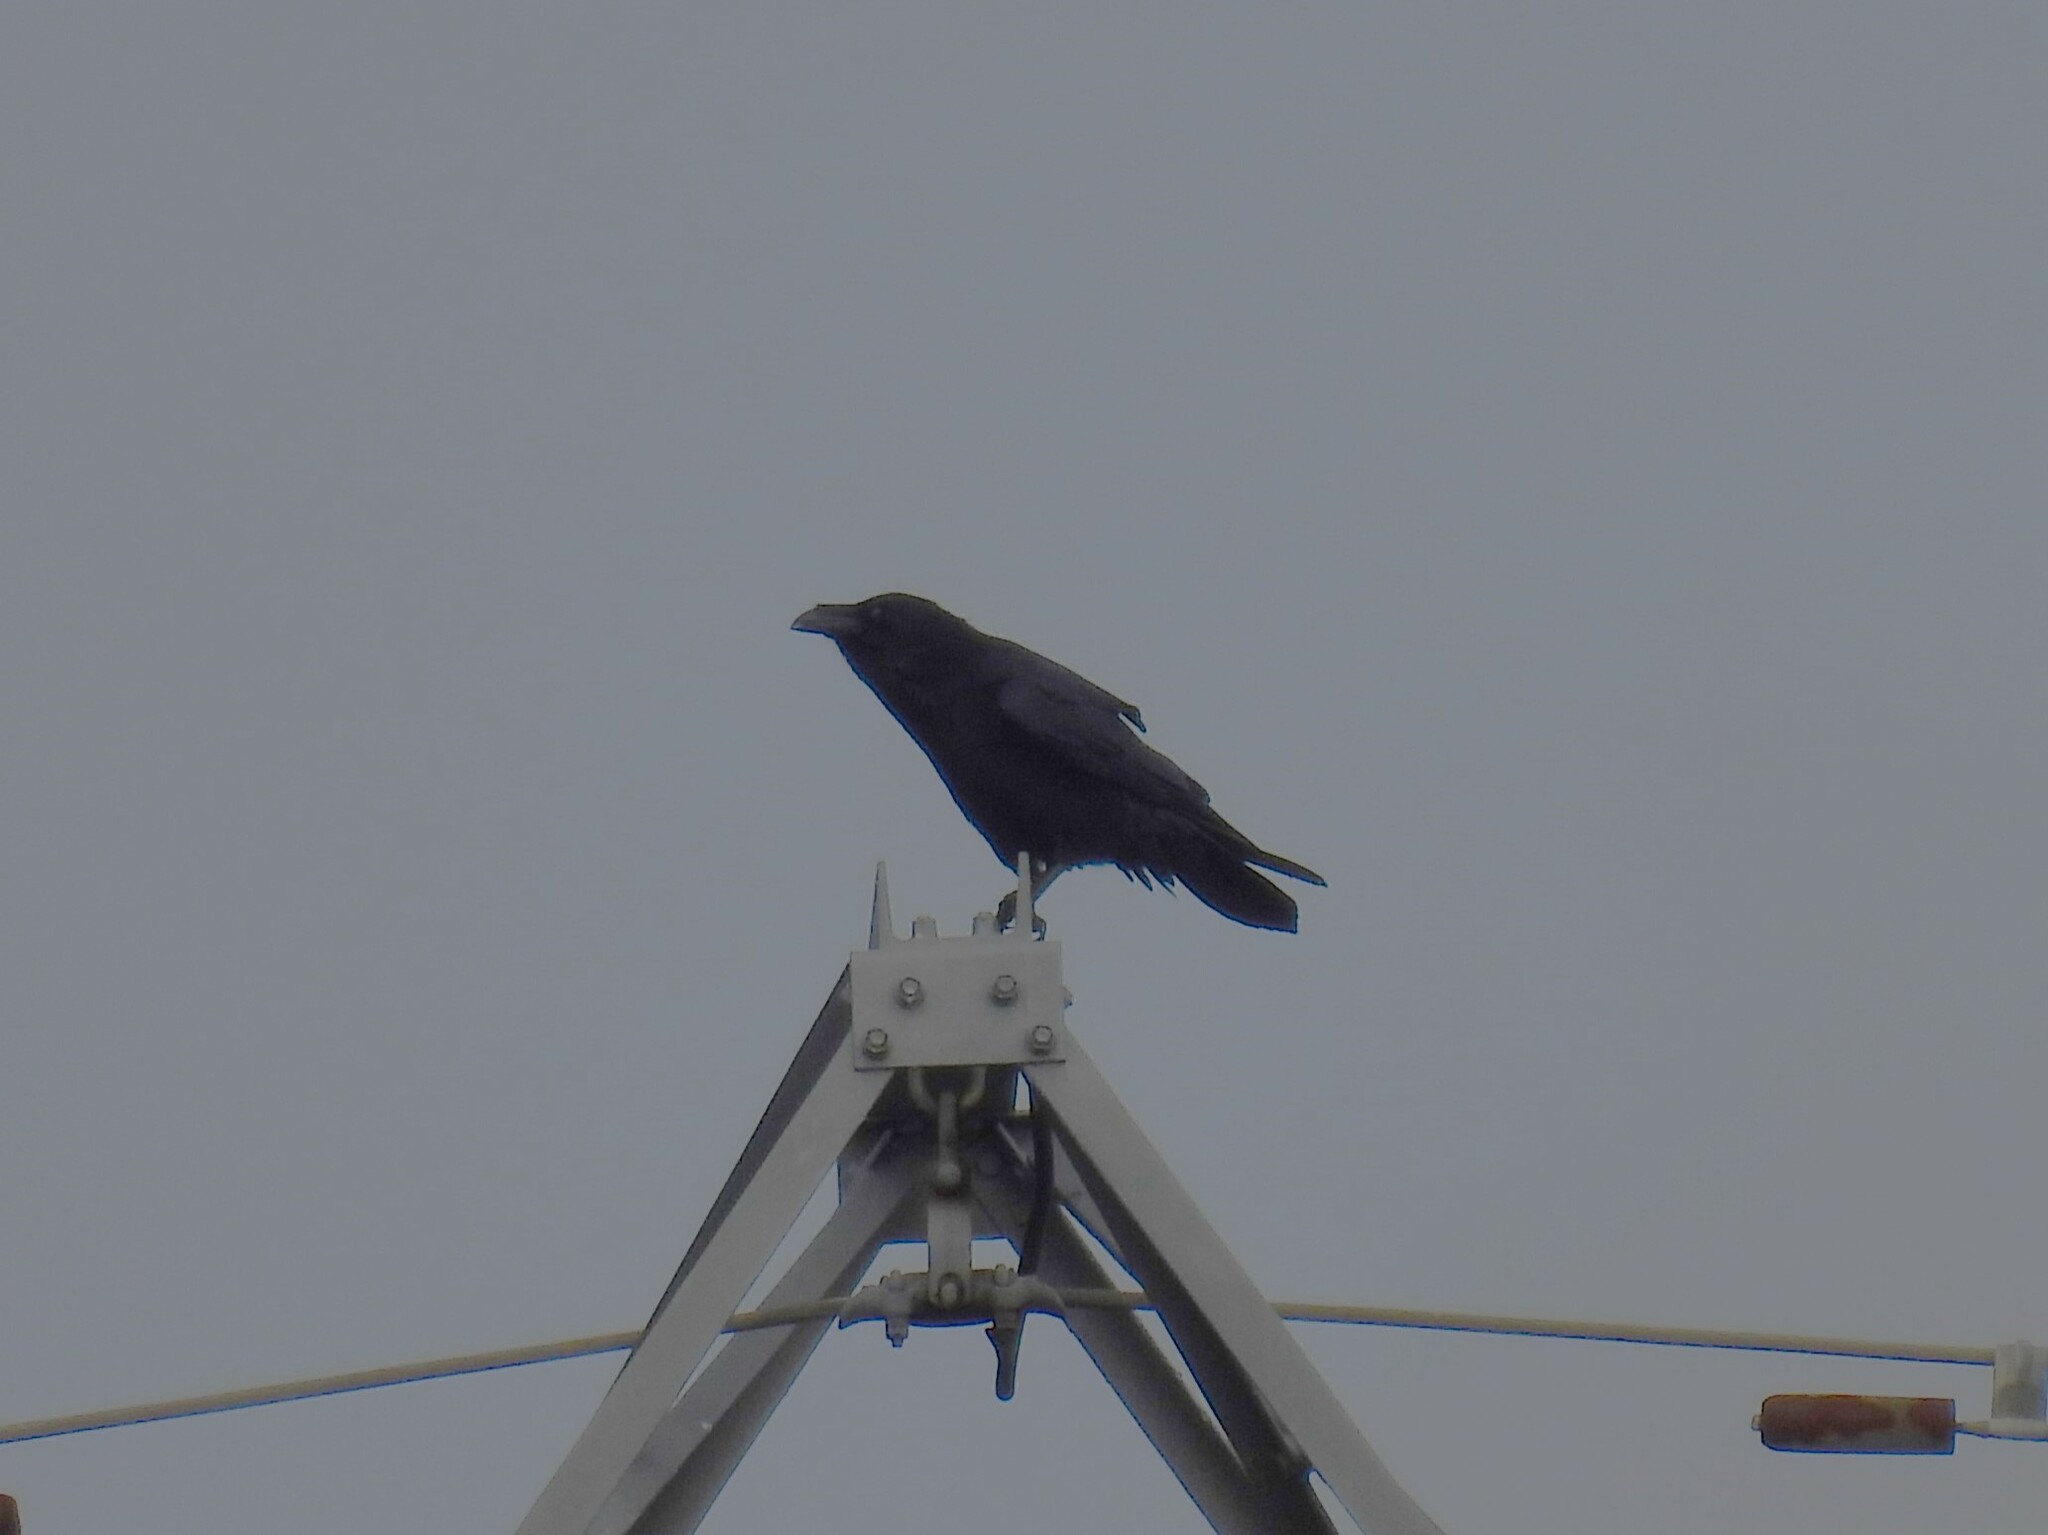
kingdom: Animalia
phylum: Chordata
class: Aves
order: Passeriformes
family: Corvidae
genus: Corvus
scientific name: Corvus corax
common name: Common raven
